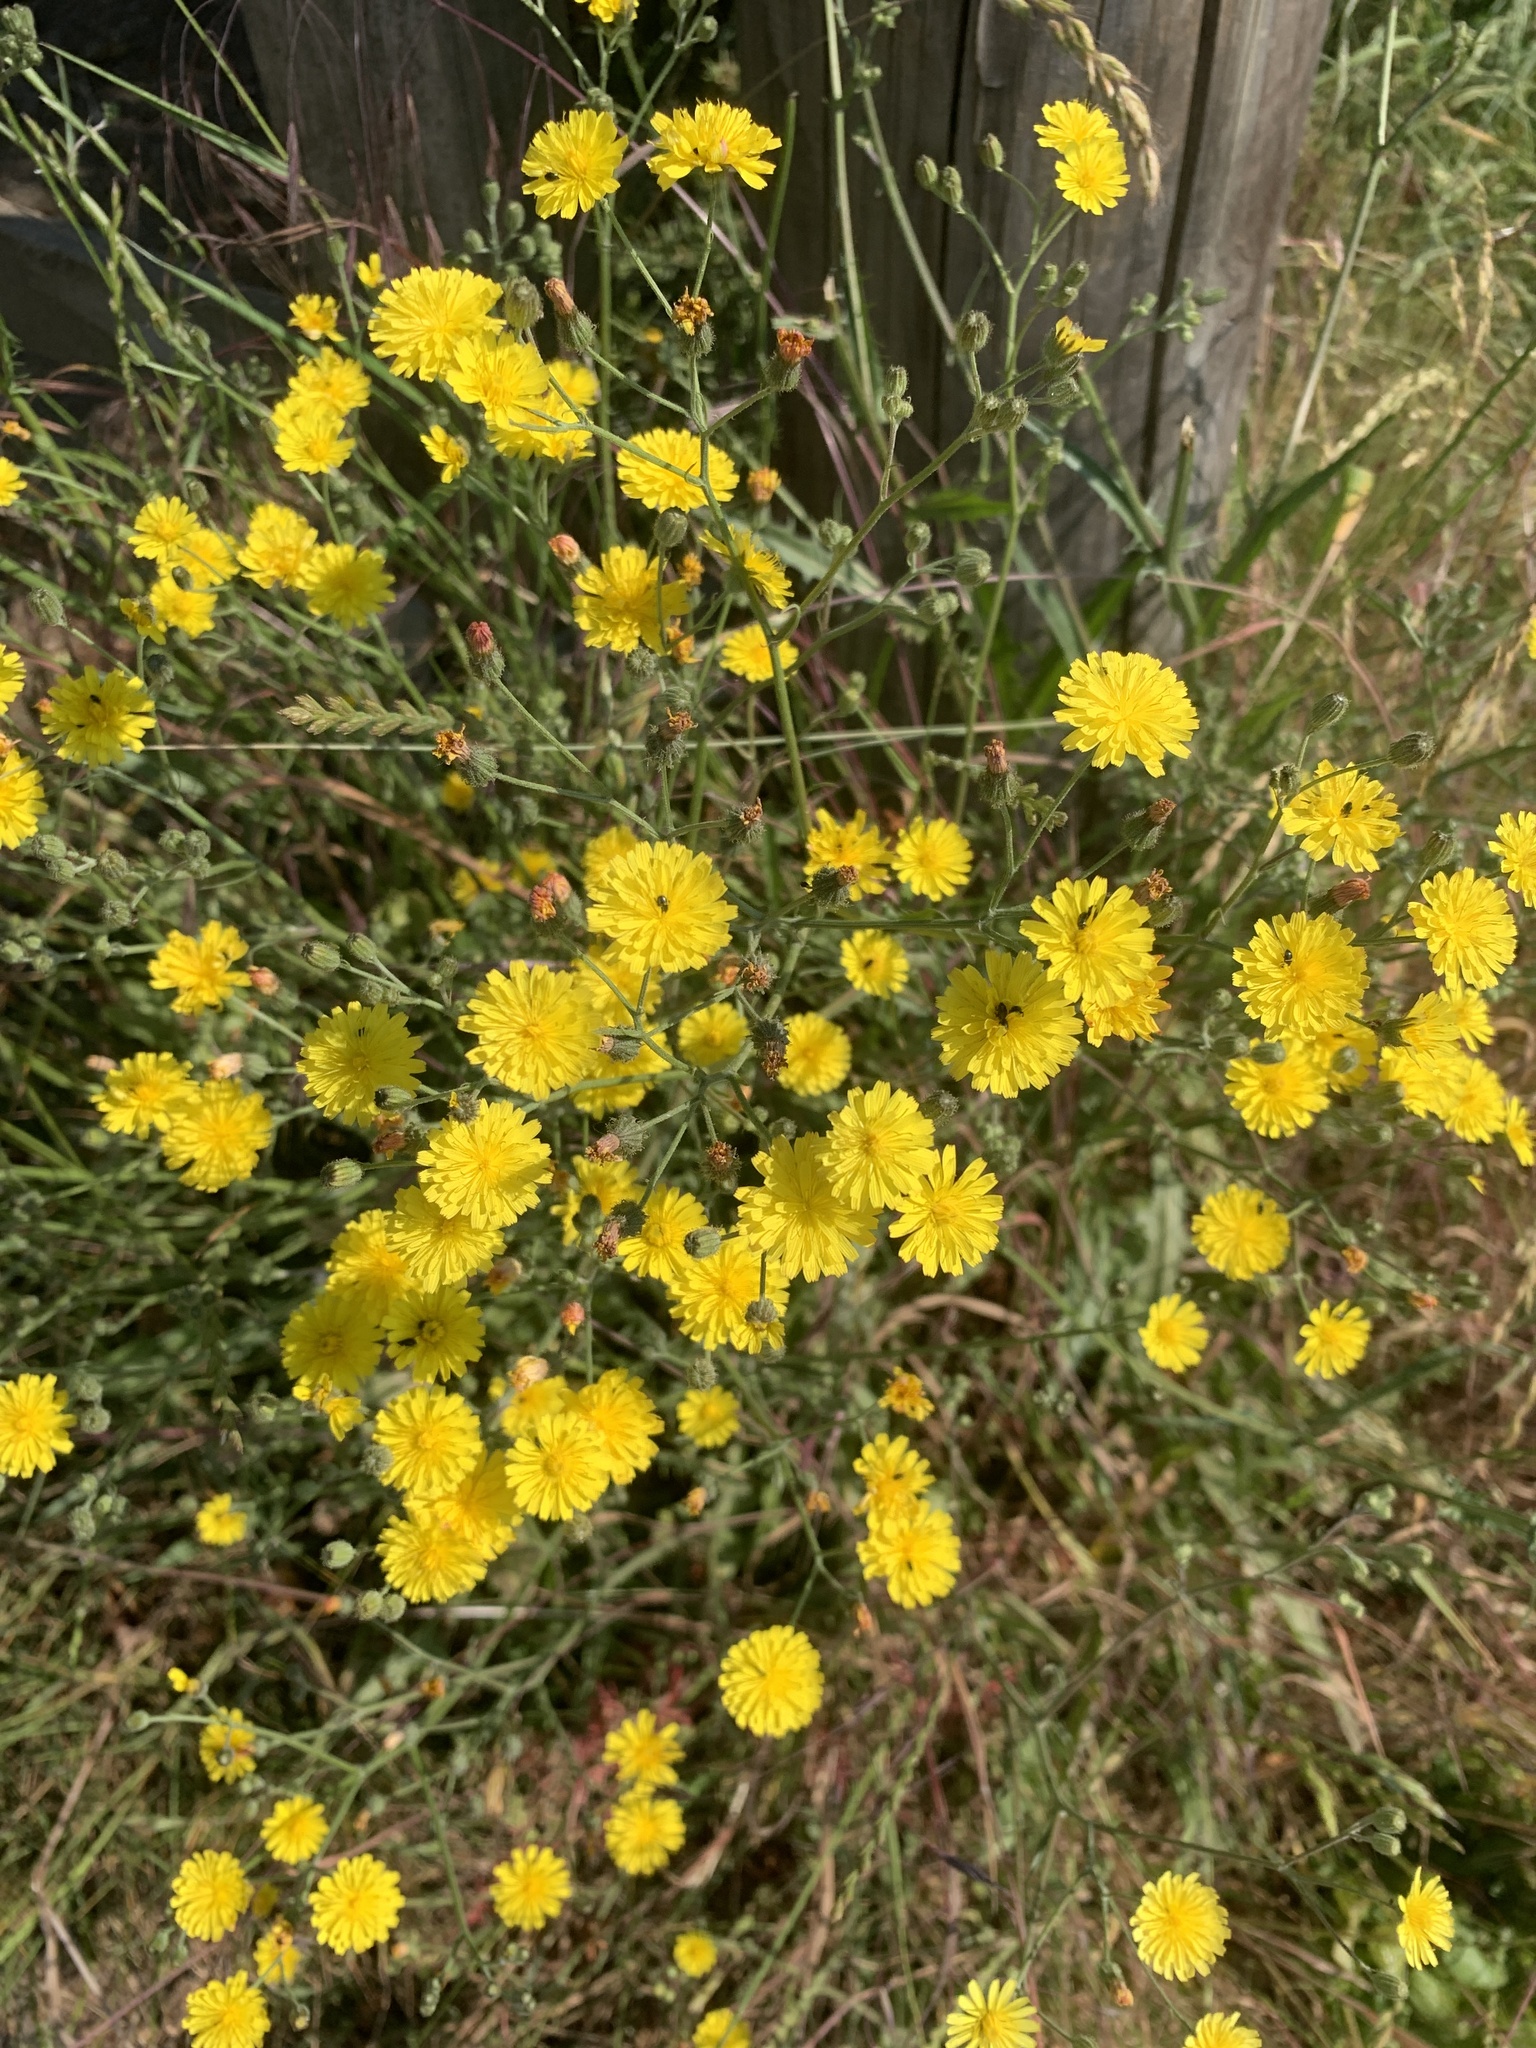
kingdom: Plantae
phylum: Tracheophyta
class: Magnoliopsida
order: Asterales
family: Asteraceae
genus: Crepis
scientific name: Crepis capillaris
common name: Smooth hawksbeard
